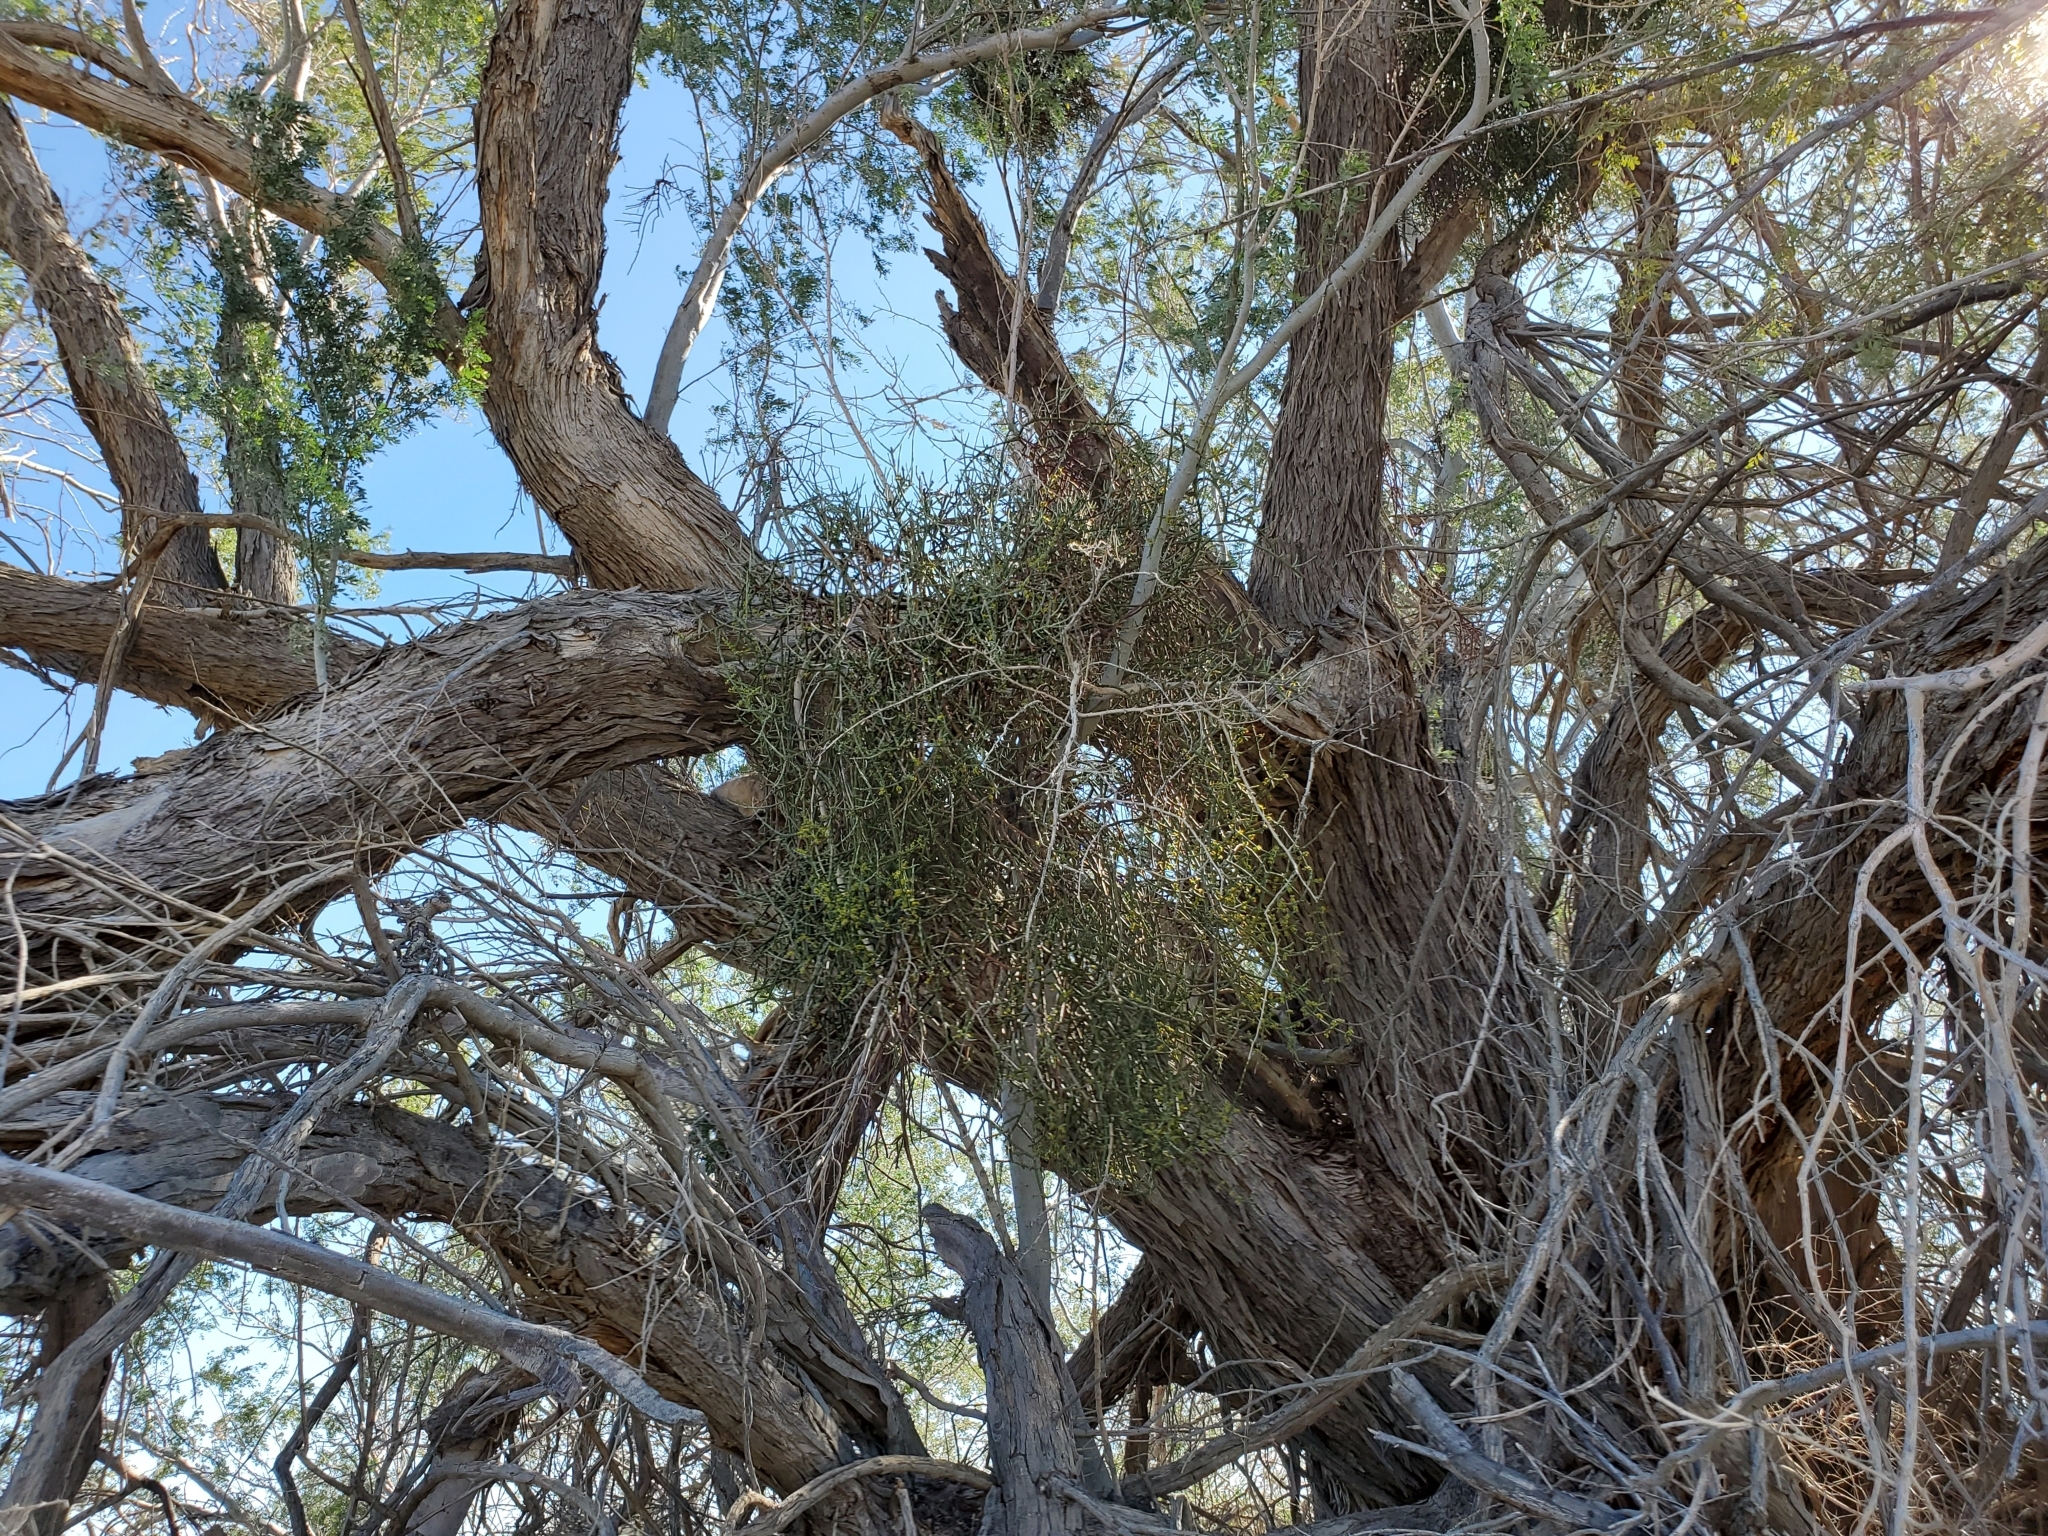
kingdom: Plantae
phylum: Tracheophyta
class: Magnoliopsida
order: Fabales
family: Fabaceae
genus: Olneya
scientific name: Olneya tesota
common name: Desert ironwood
